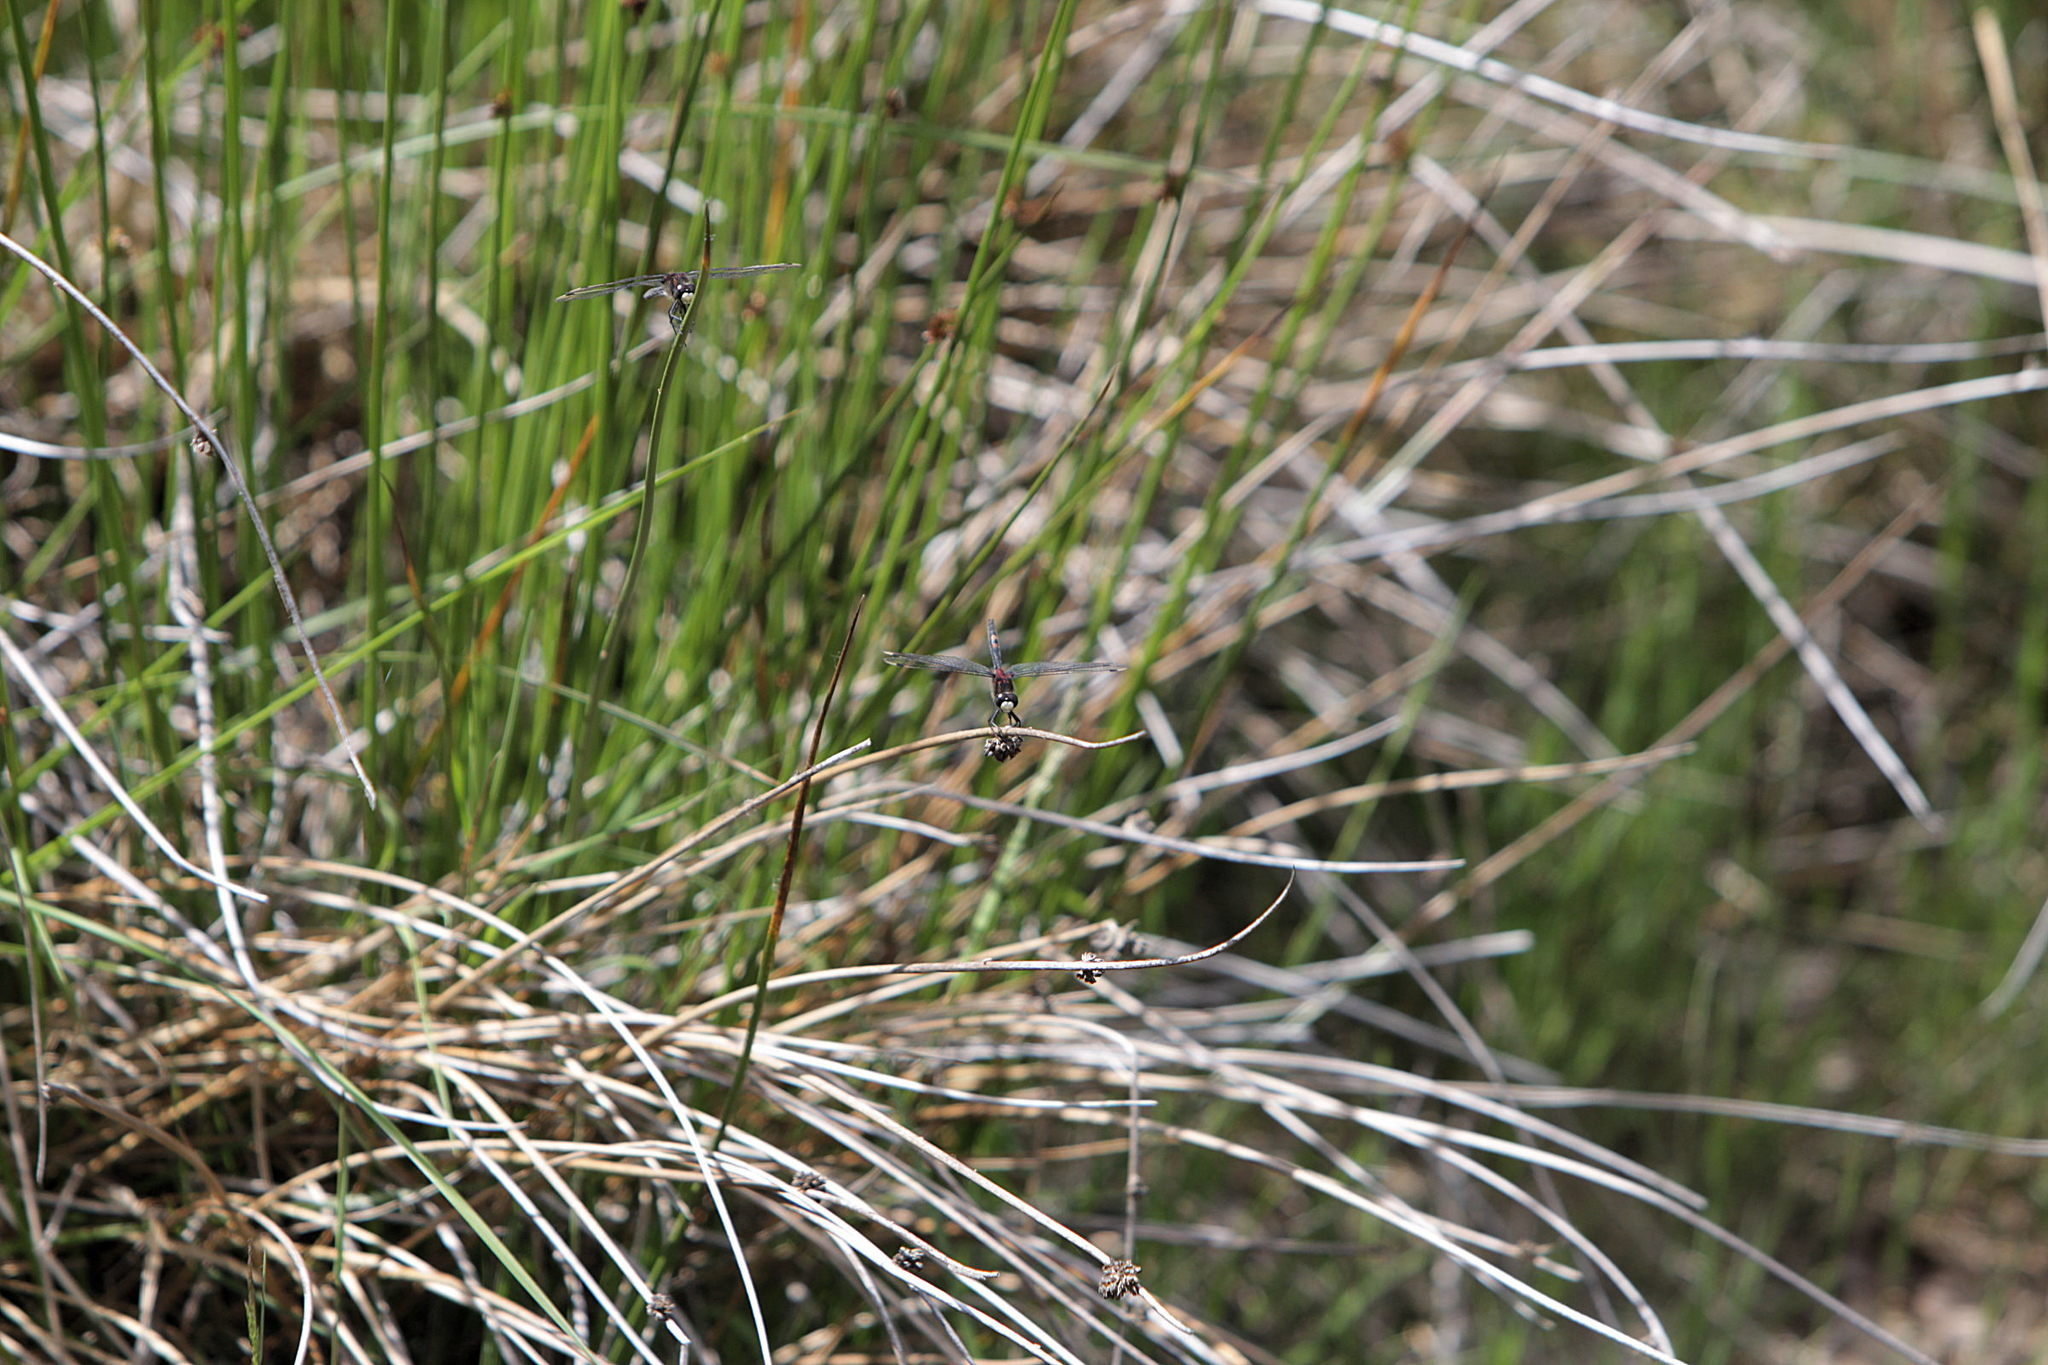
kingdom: Animalia
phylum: Arthropoda
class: Insecta
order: Odonata
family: Libellulidae
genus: Leucorrhinia
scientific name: Leucorrhinia dubia
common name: White-faced darter
